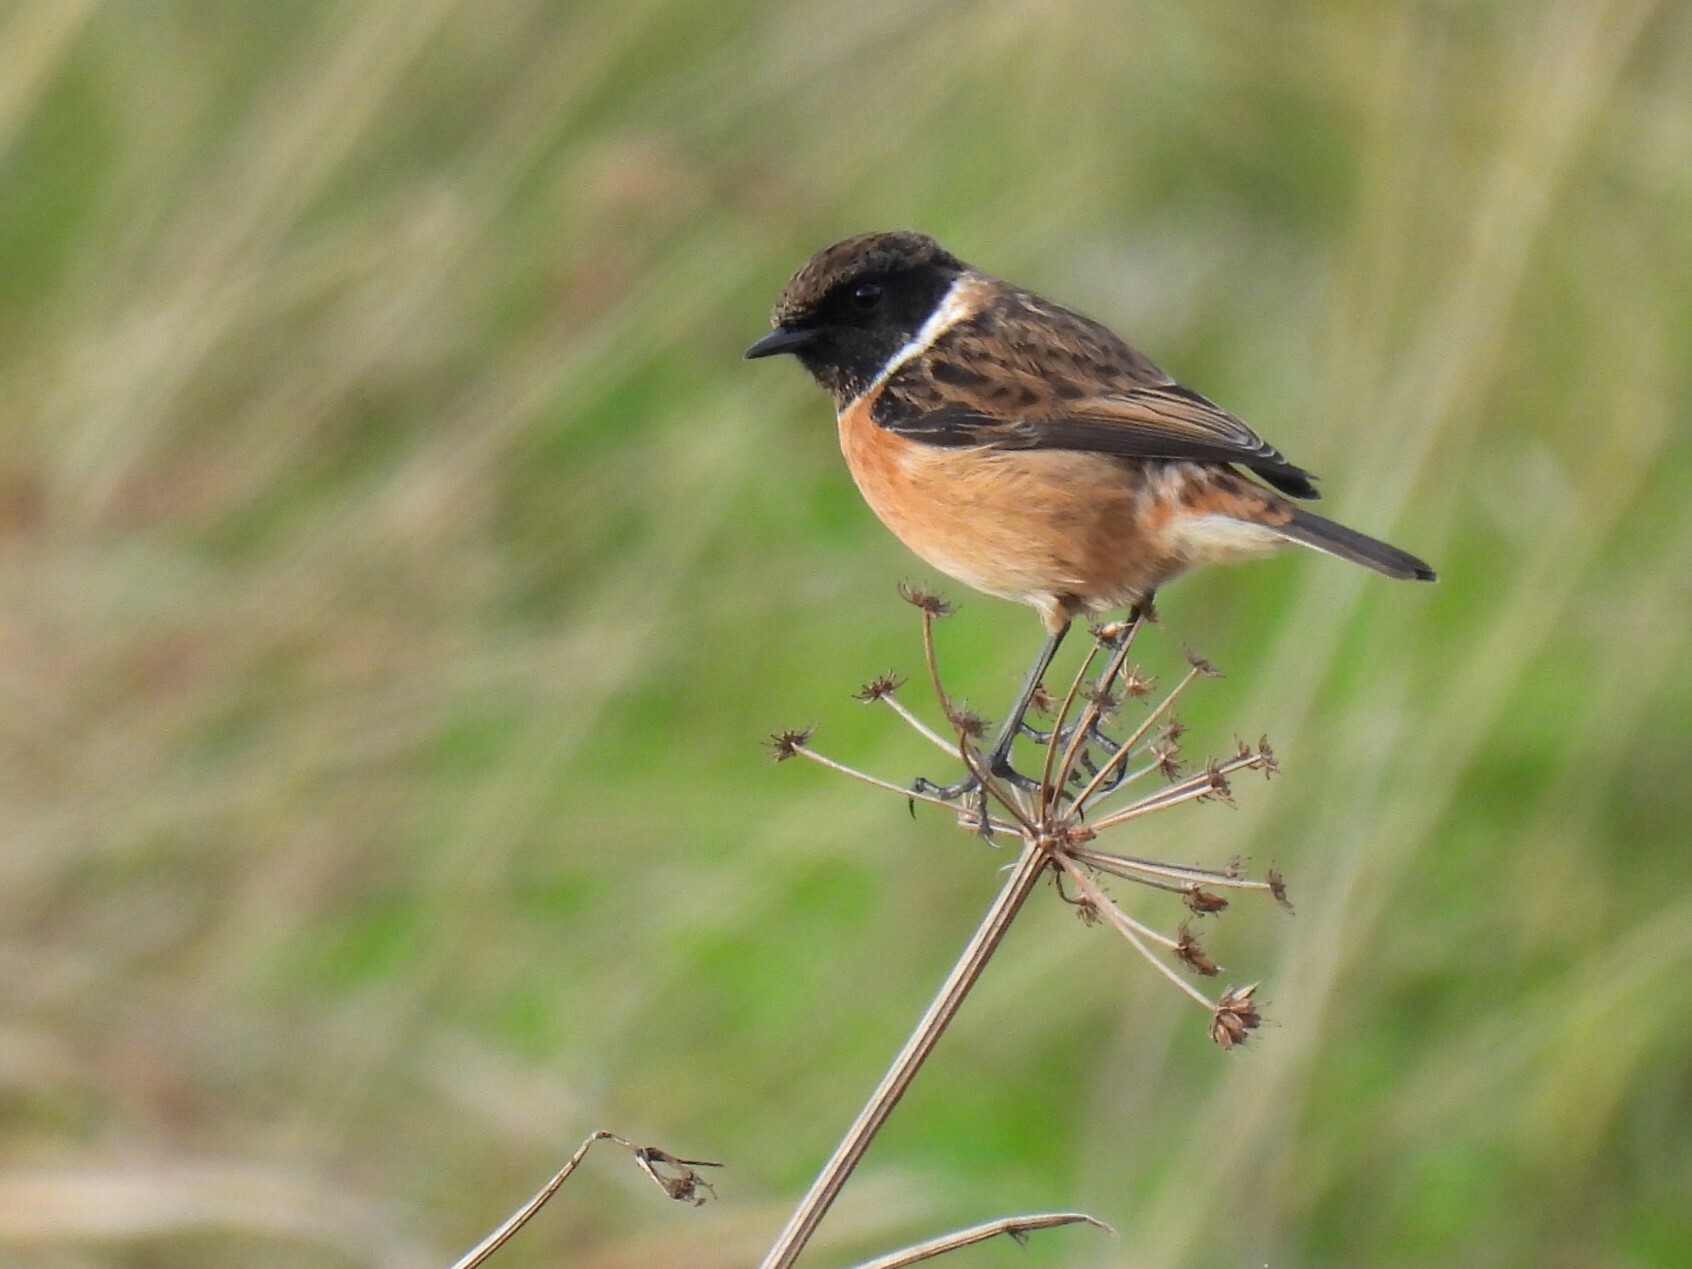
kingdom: Animalia
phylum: Chordata
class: Aves
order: Passeriformes
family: Muscicapidae
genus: Saxicola
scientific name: Saxicola rubicola
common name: European stonechat
